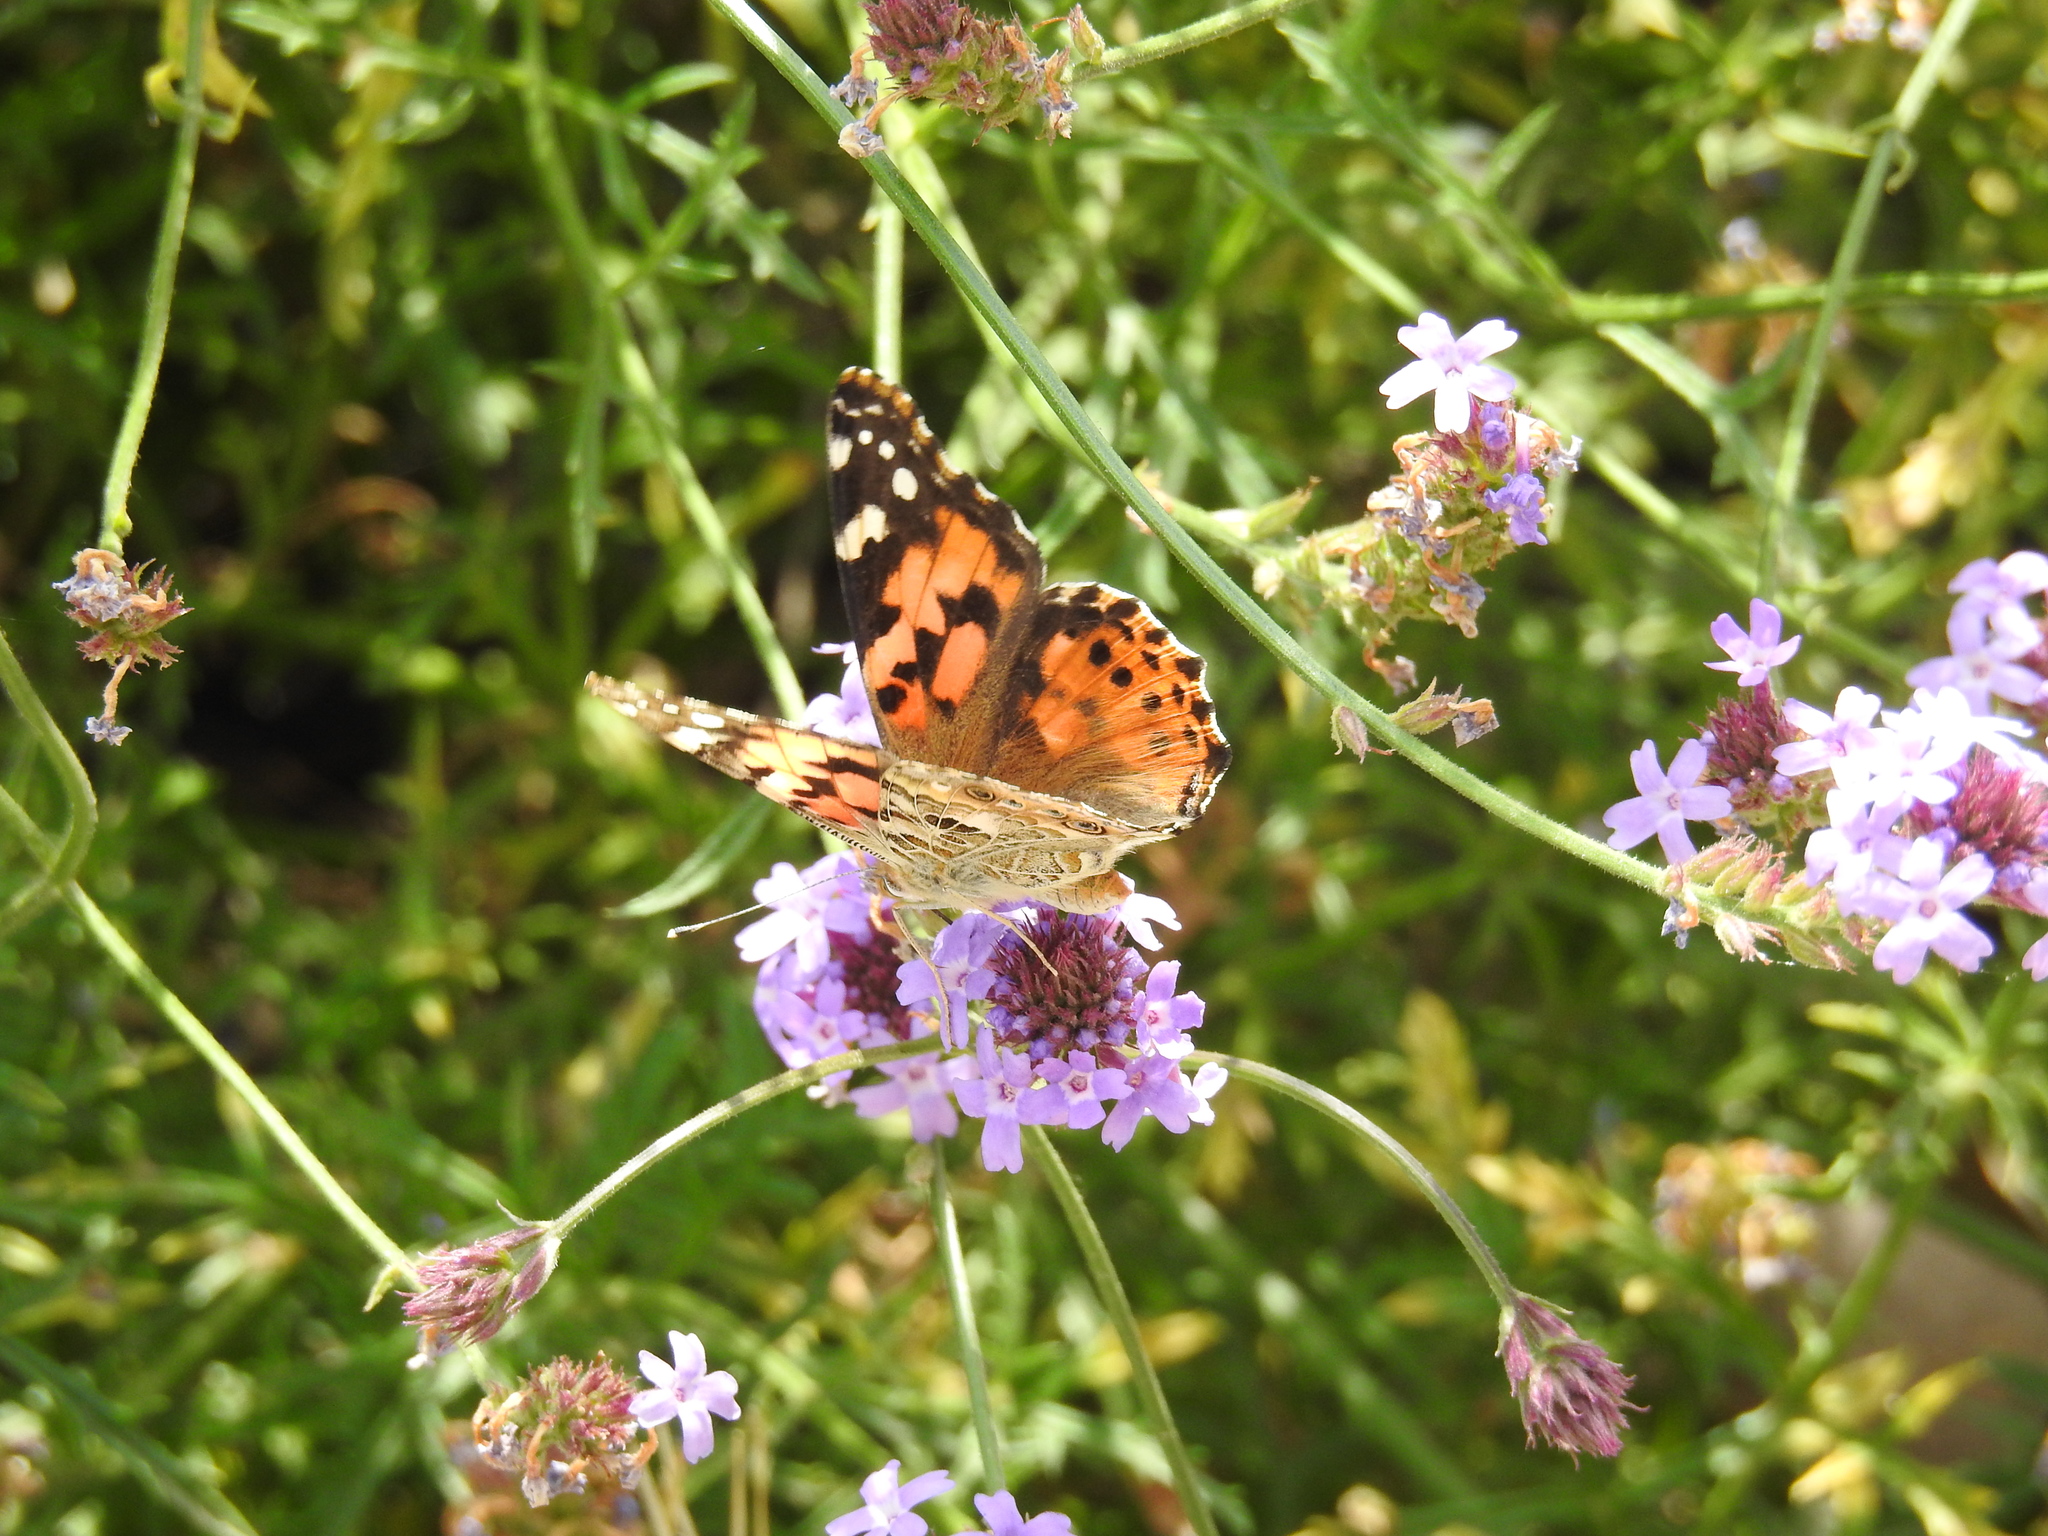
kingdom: Animalia
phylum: Arthropoda
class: Insecta
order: Lepidoptera
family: Nymphalidae
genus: Vanessa
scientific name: Vanessa cardui
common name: Painted lady
